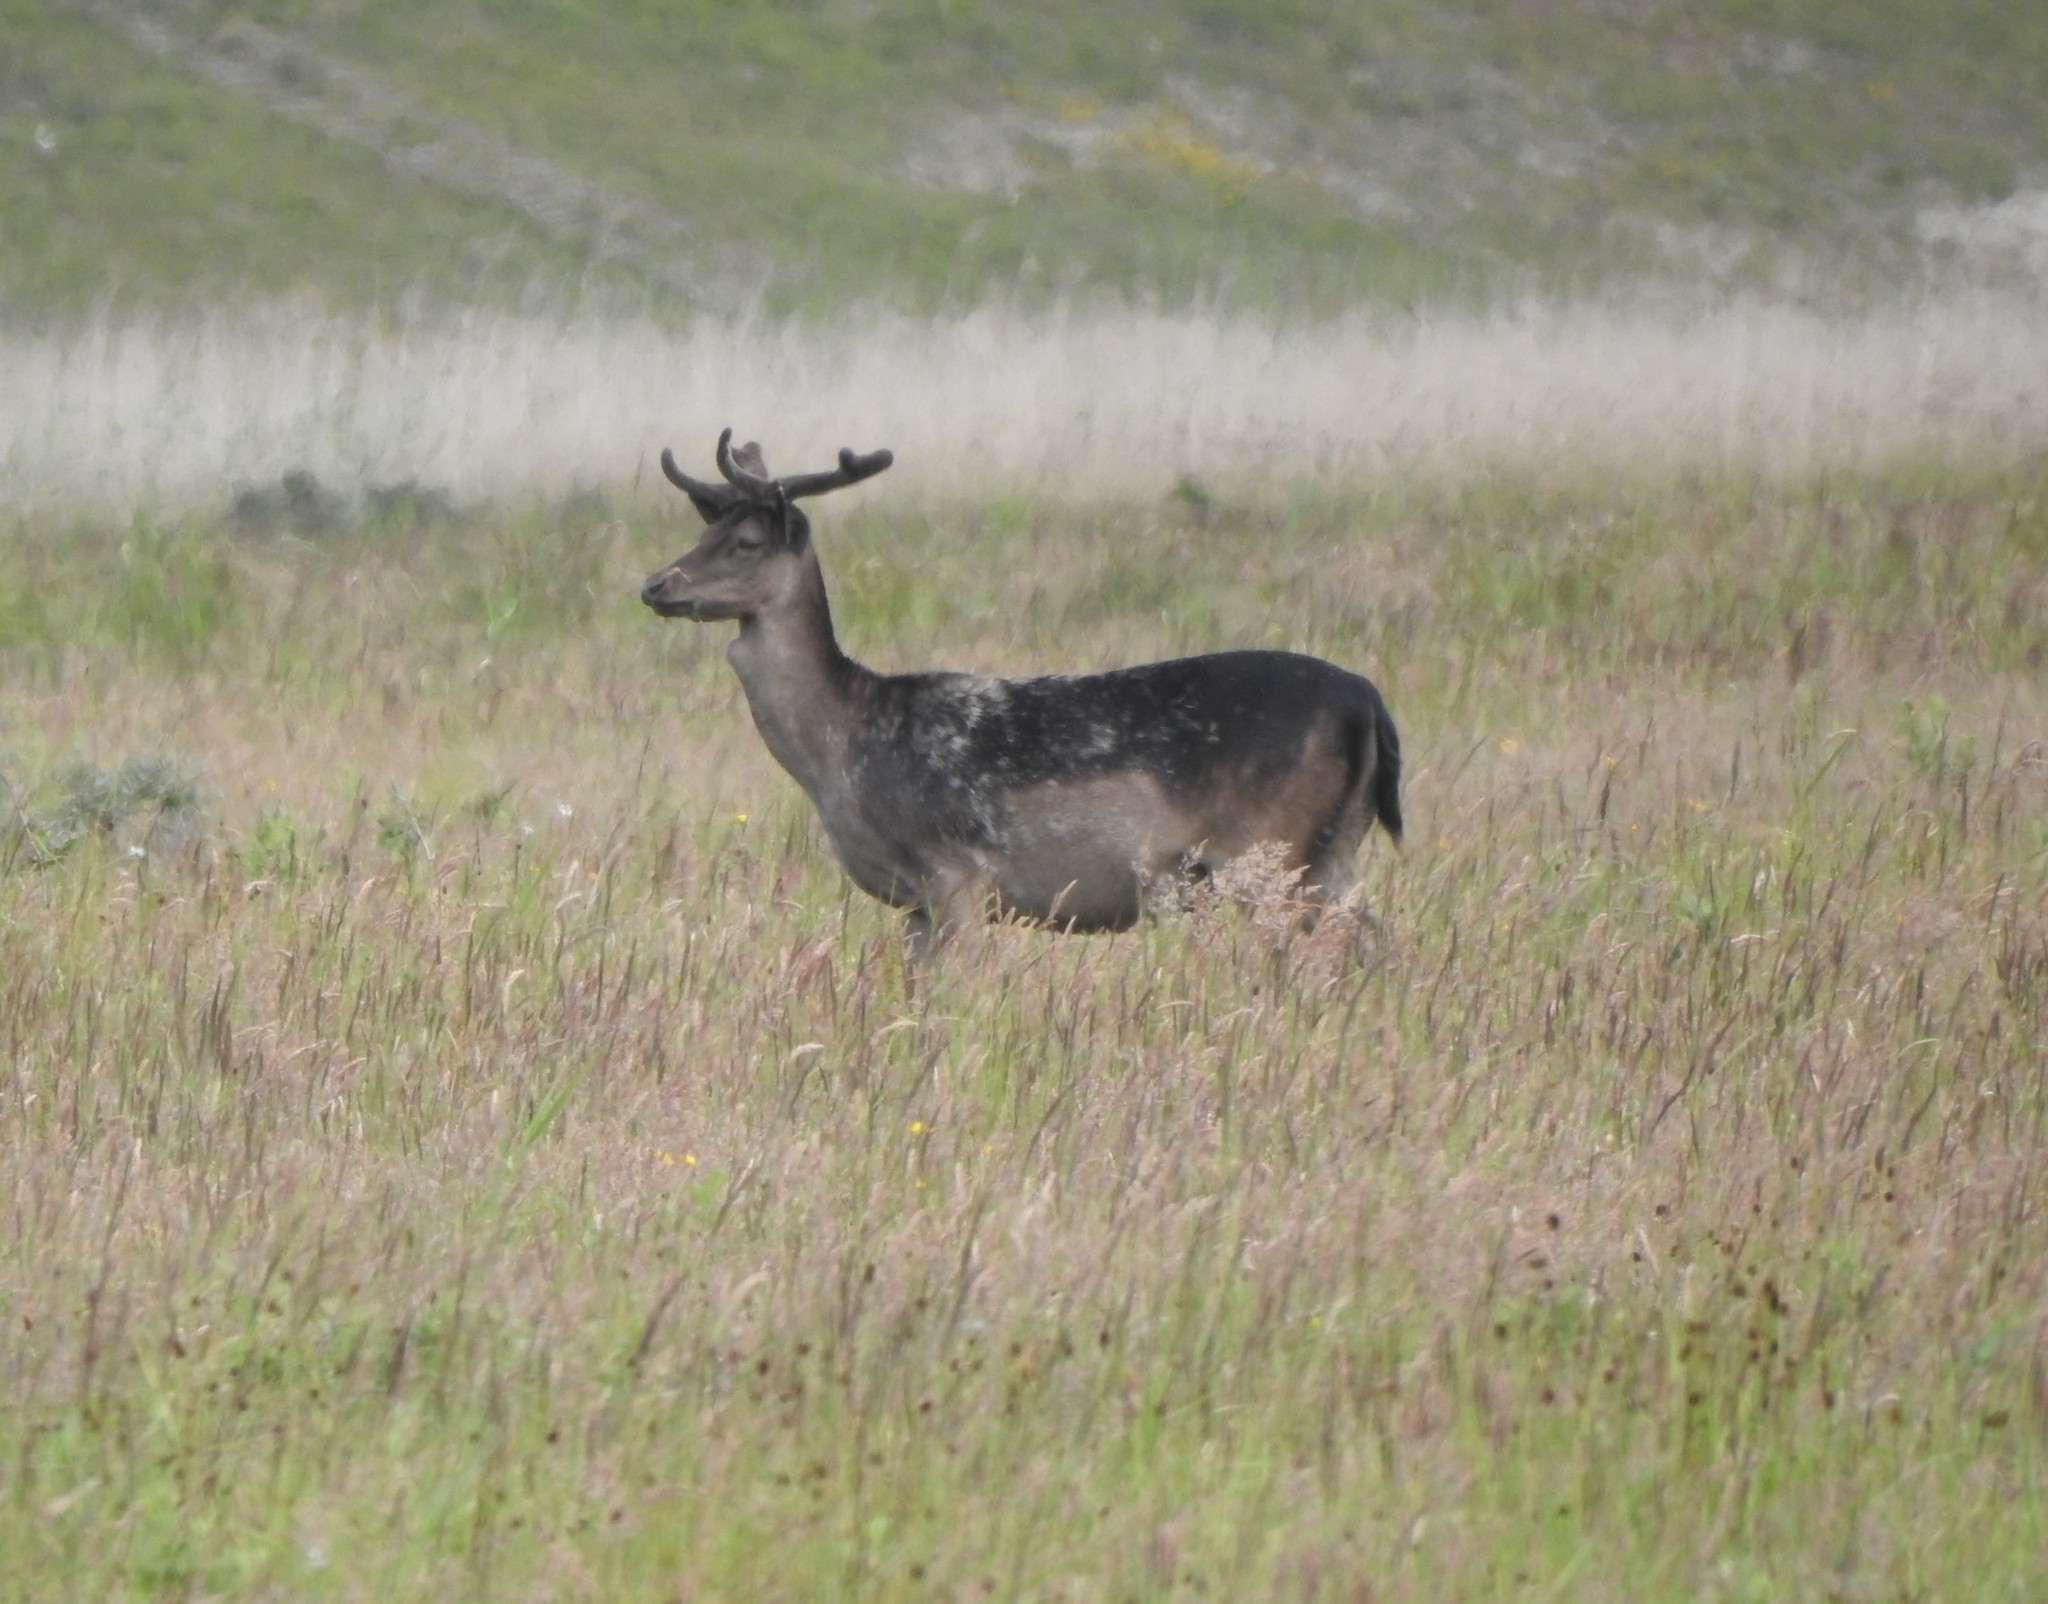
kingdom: Animalia
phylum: Chordata
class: Mammalia
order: Artiodactyla
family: Cervidae
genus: Dama
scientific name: Dama dama
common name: Fallow deer
